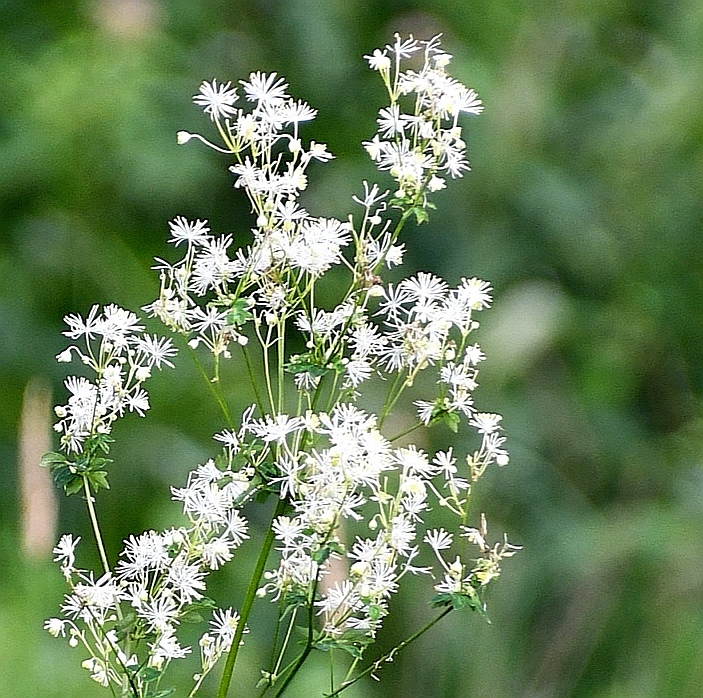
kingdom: Plantae
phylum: Tracheophyta
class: Magnoliopsida
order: Ranunculales
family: Ranunculaceae
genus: Thalictrum
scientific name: Thalictrum pubescens
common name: King-of-the-meadow
